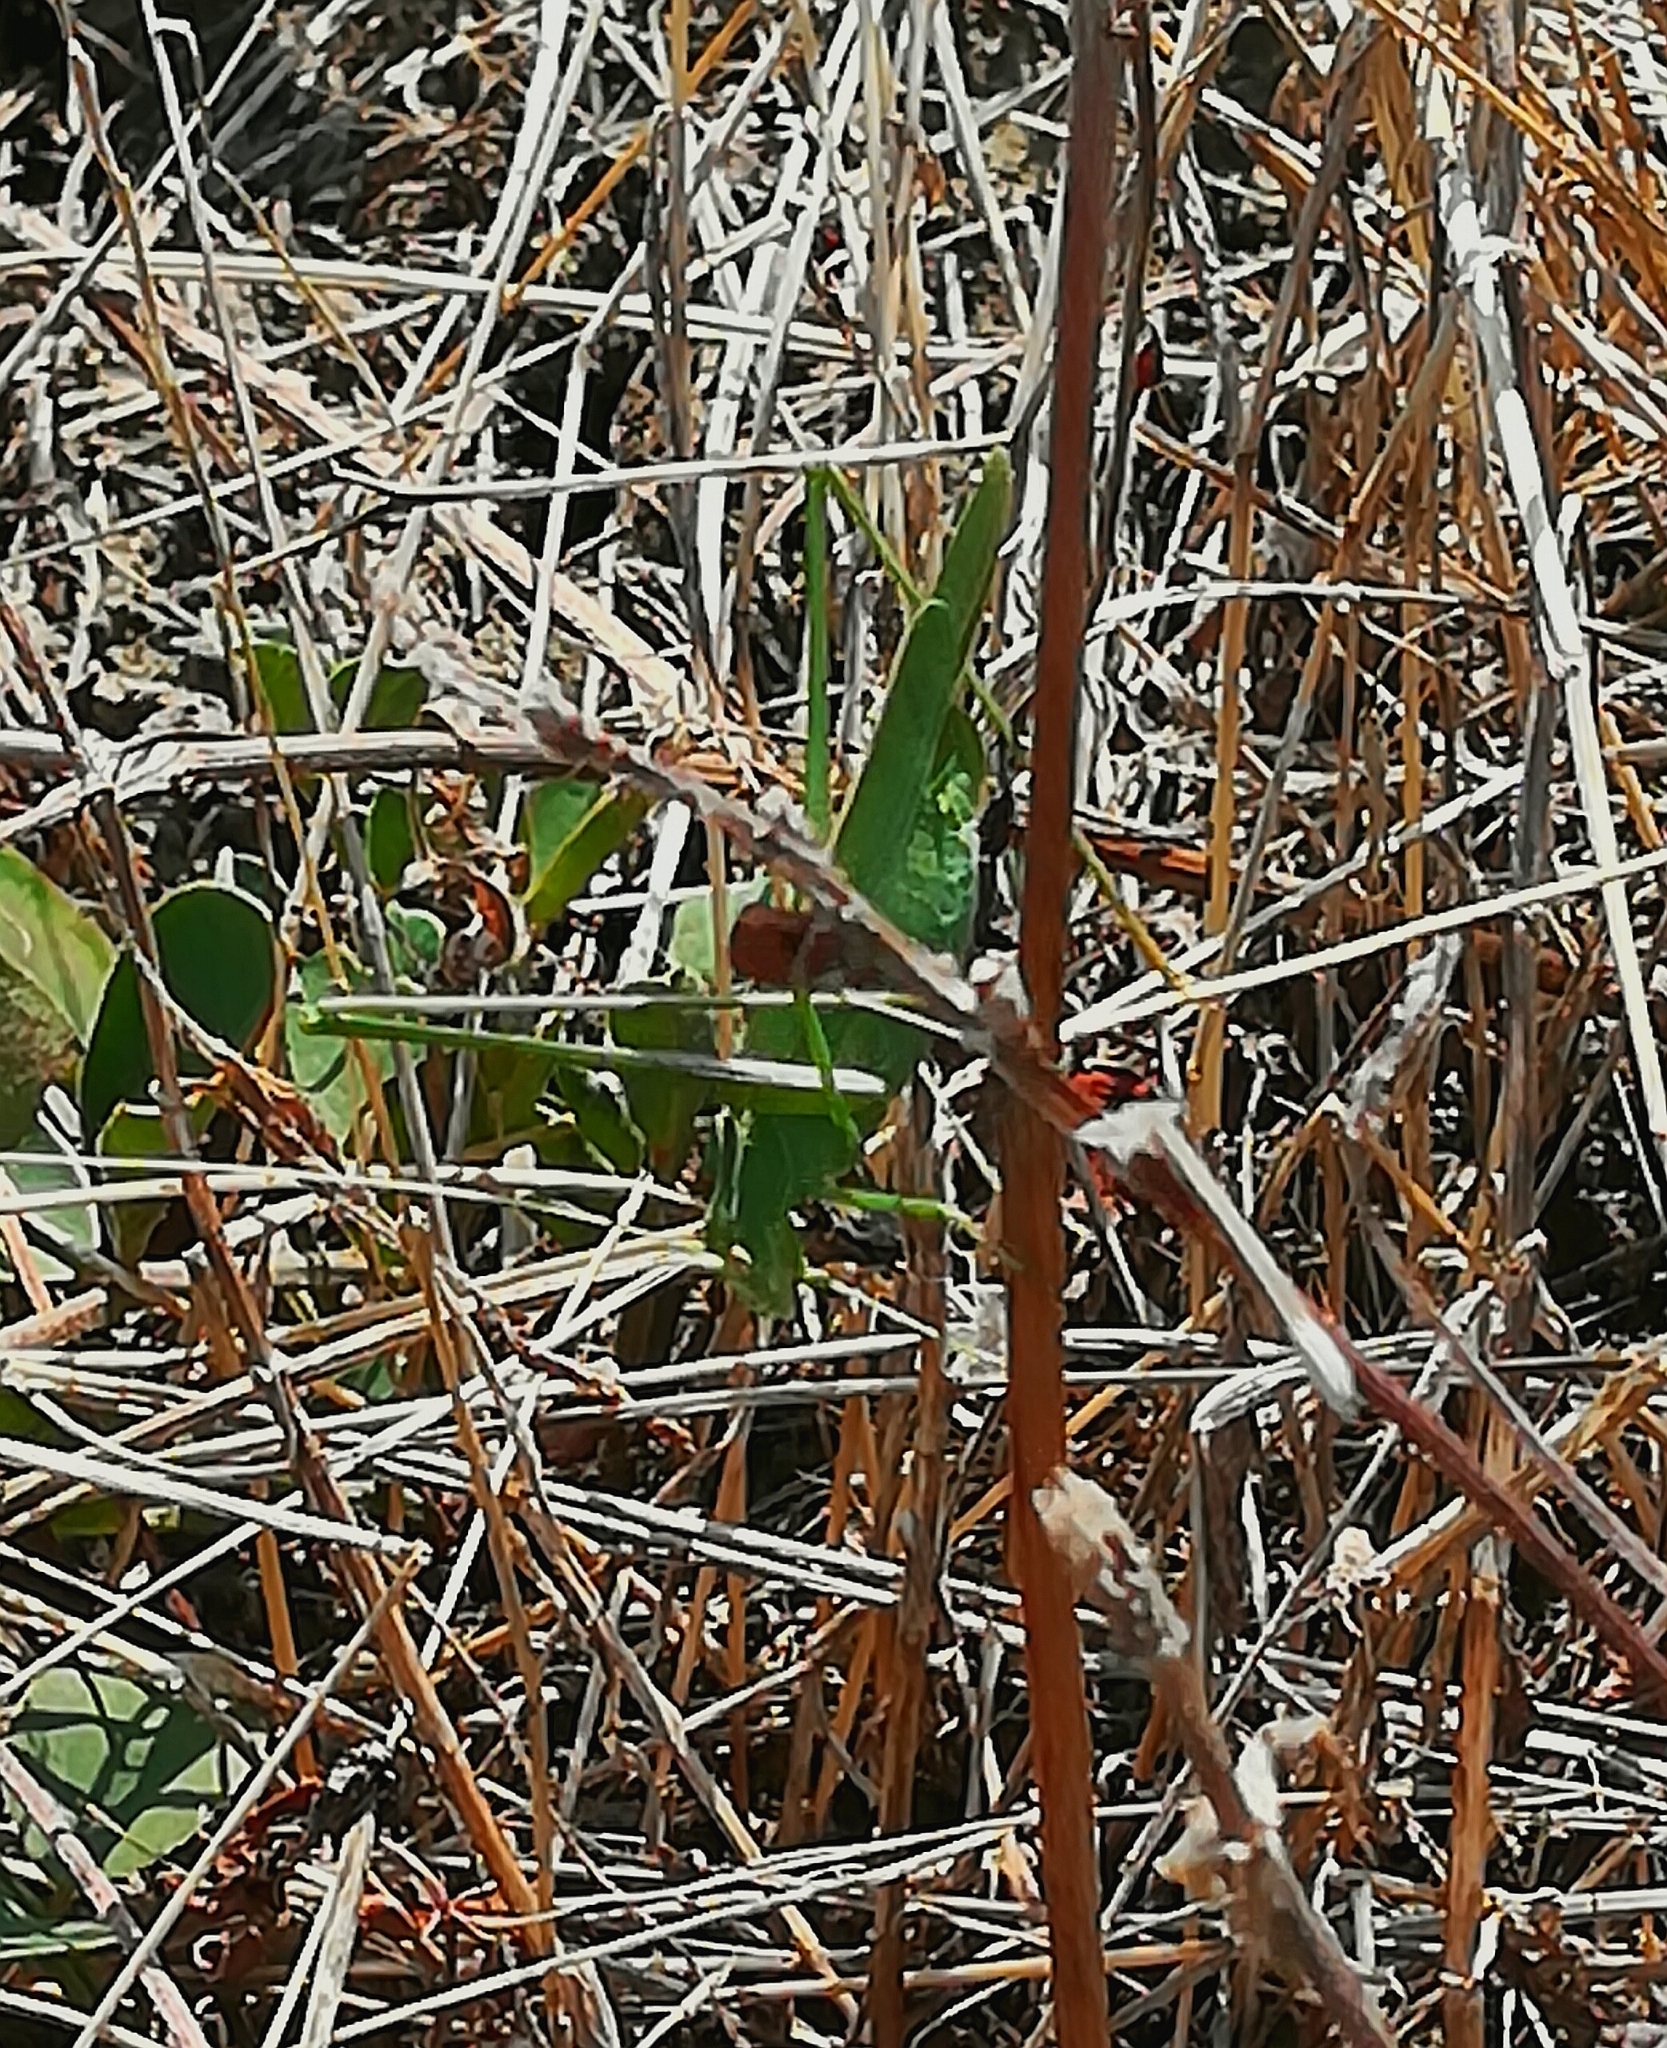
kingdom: Animalia
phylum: Arthropoda
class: Insecta
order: Orthoptera
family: Tettigoniidae
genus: Tylopsis
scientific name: Tylopsis lilifolia
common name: Lily bush-cricket
